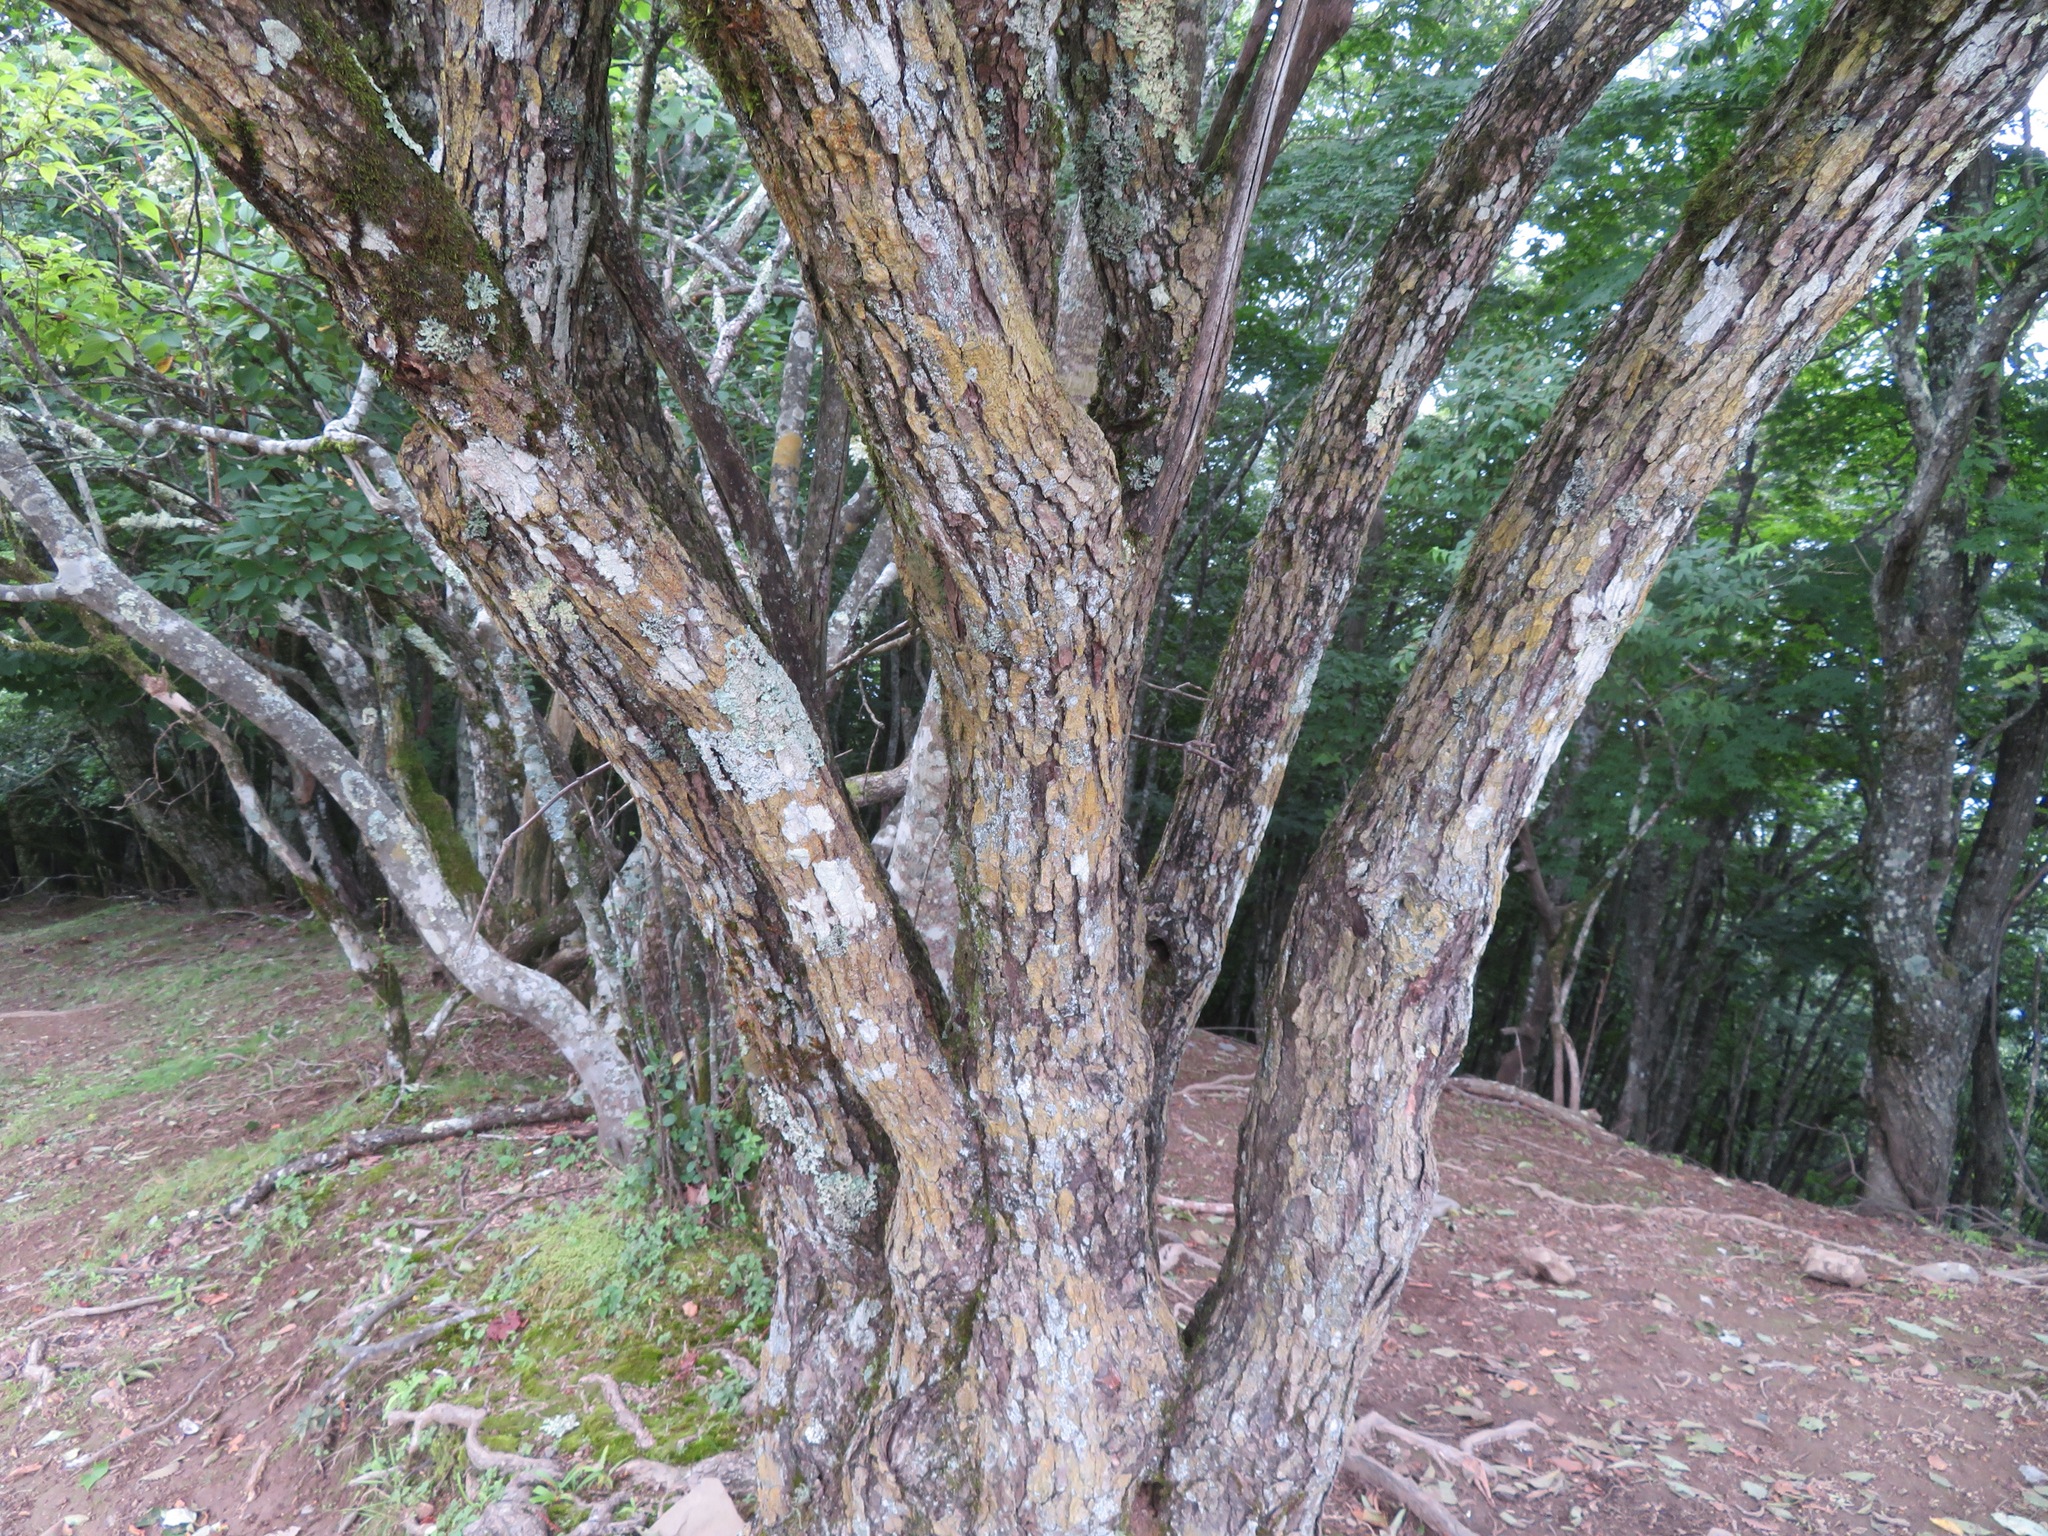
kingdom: Plantae
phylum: Tracheophyta
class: Magnoliopsida
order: Cornales
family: Hydrangeaceae
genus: Hydrangea
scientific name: Hydrangea paniculata
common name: Panicled hydrangea
